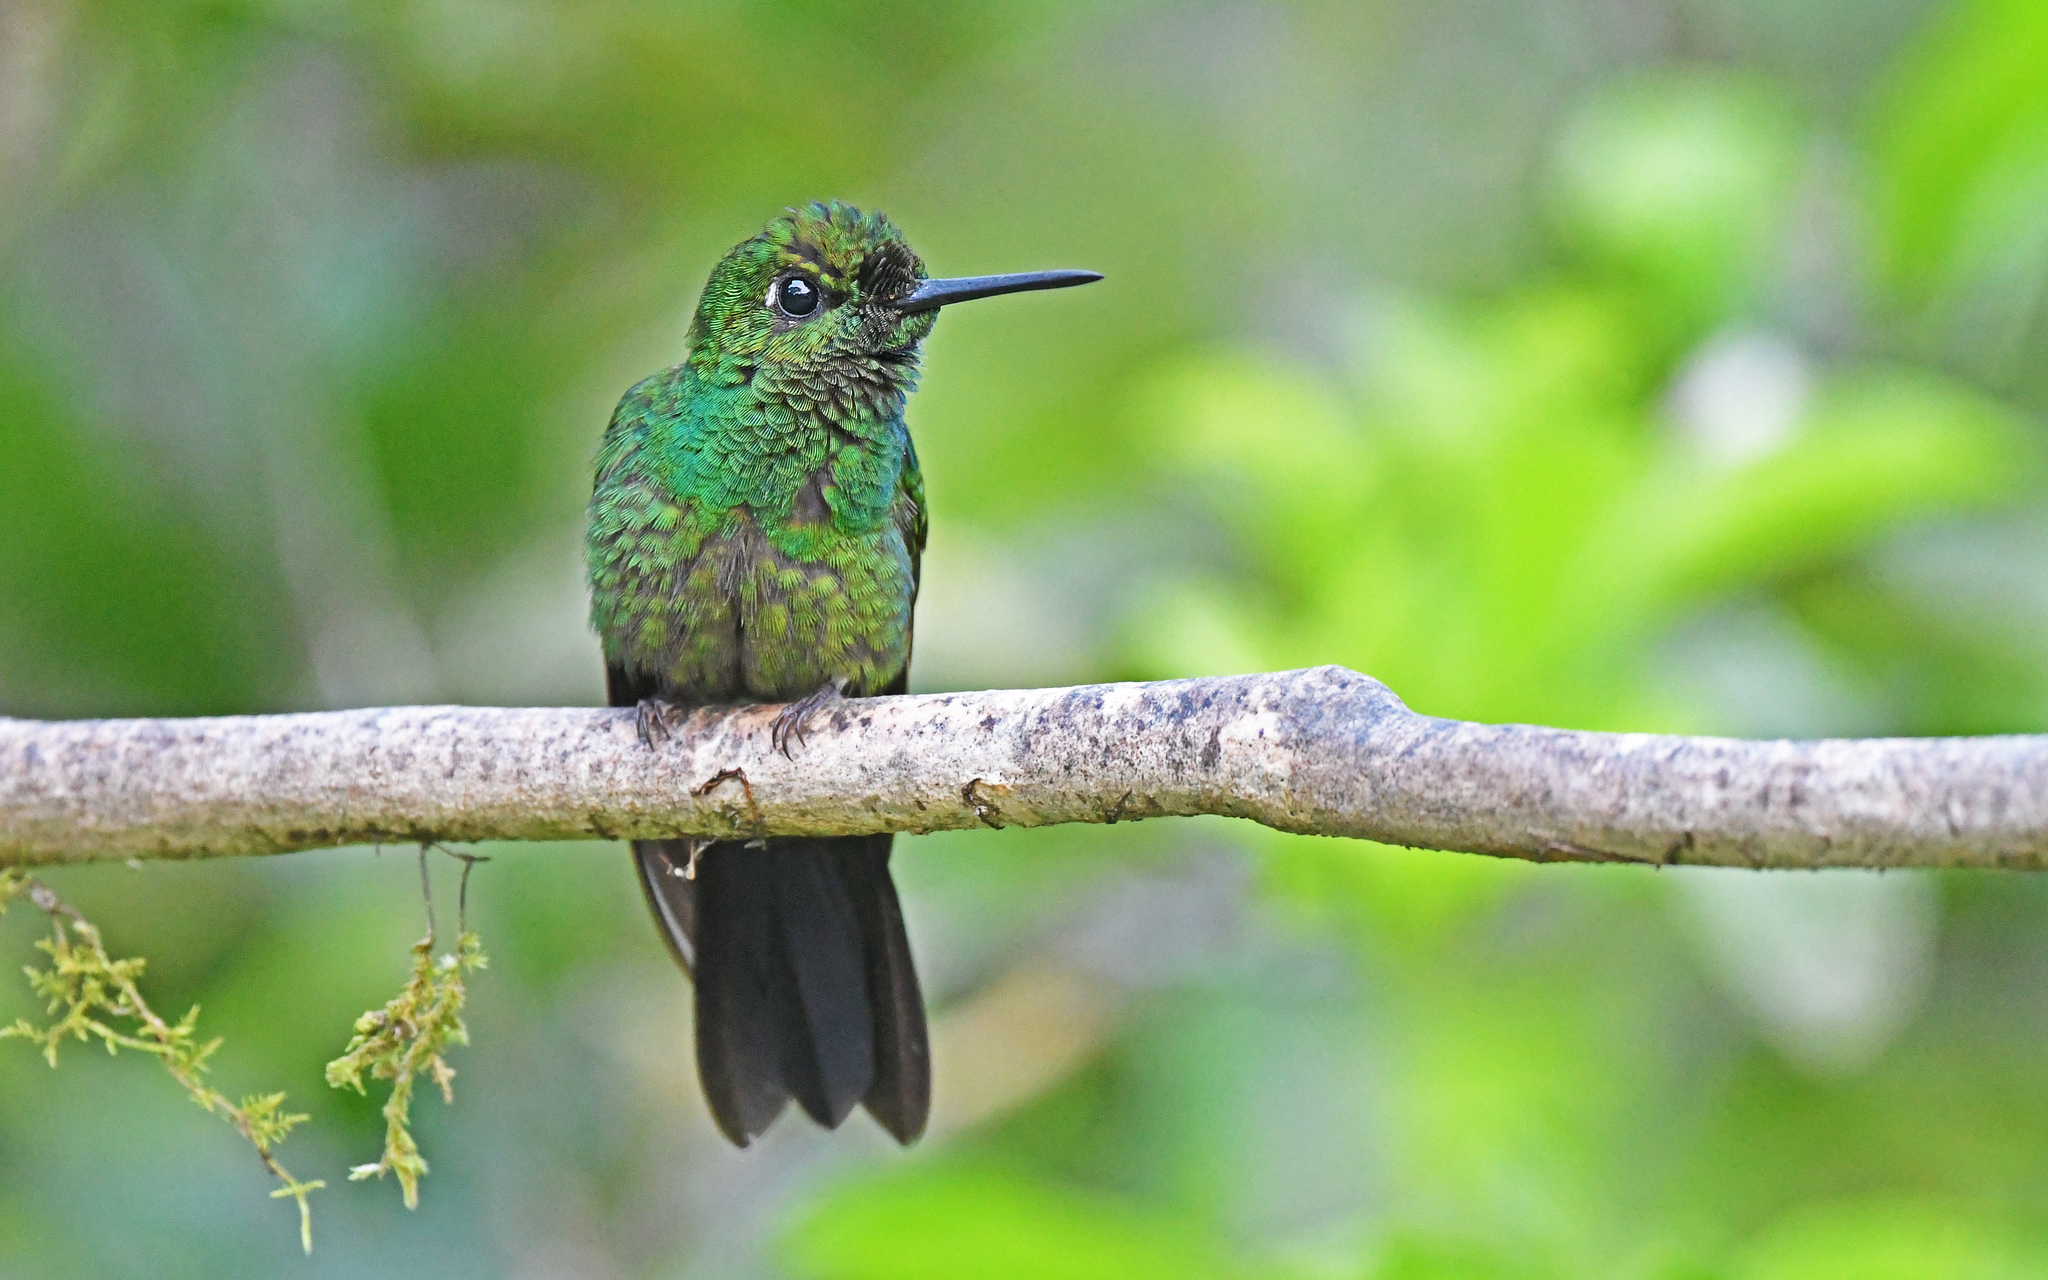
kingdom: Animalia
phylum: Chordata
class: Aves
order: Apodiformes
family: Trochilidae
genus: Heliodoxa
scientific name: Heliodoxa jacula
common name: Green-crowned brilliant
